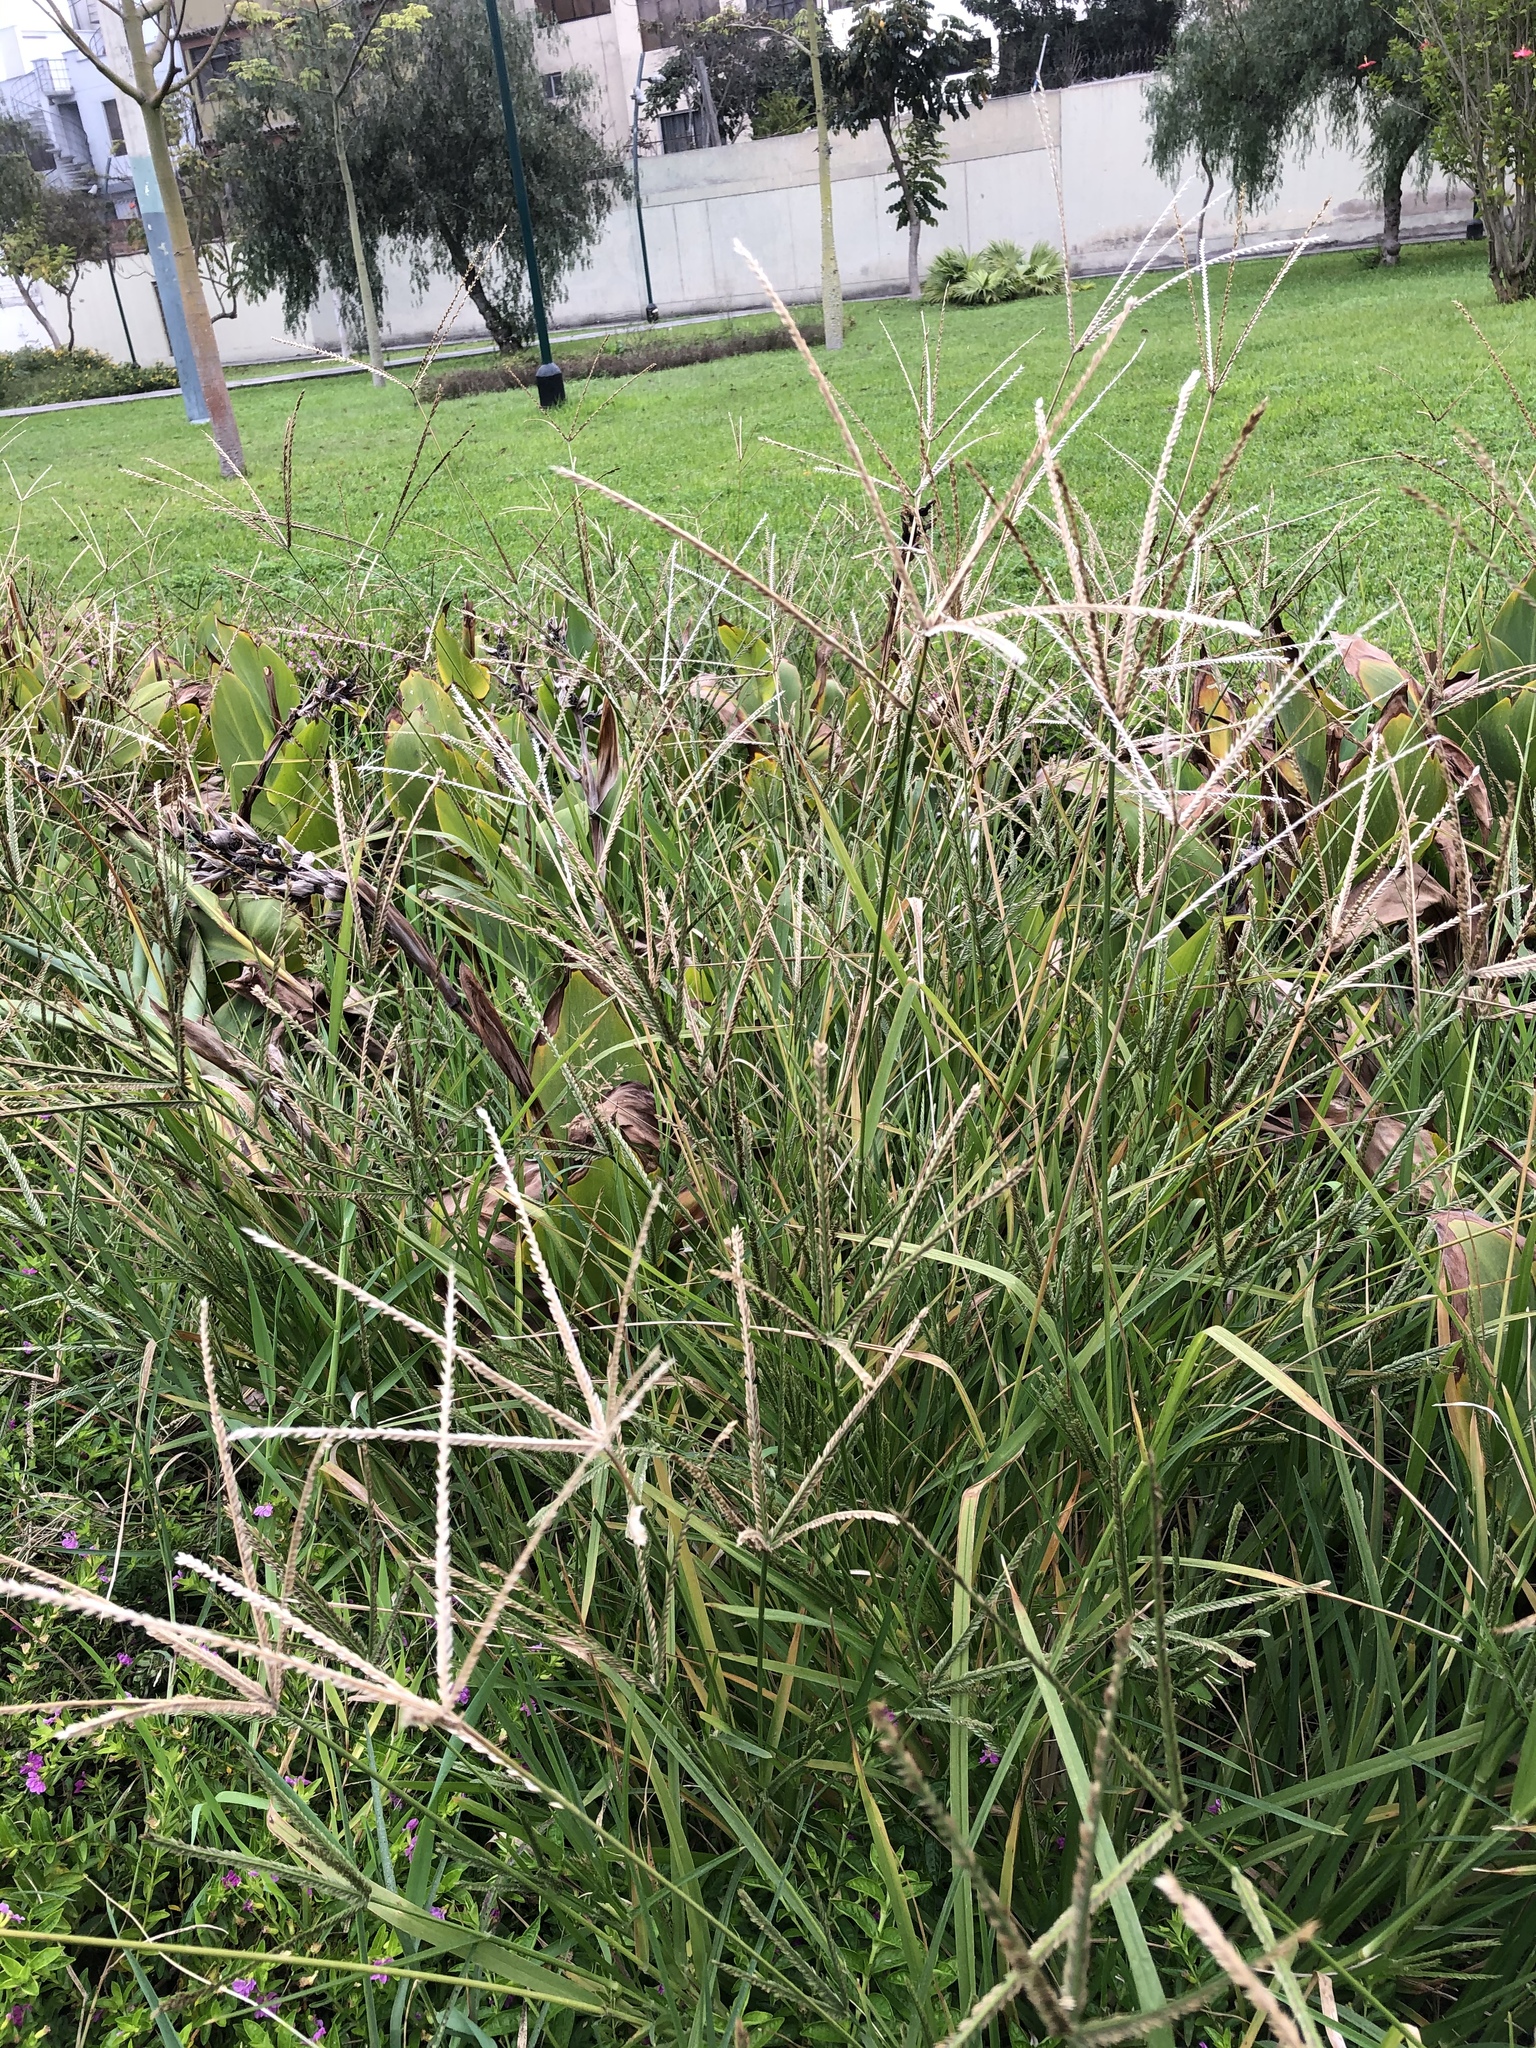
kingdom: Plantae
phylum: Tracheophyta
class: Liliopsida
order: Poales
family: Poaceae
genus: Eleusine
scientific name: Eleusine indica
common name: Yard-grass
